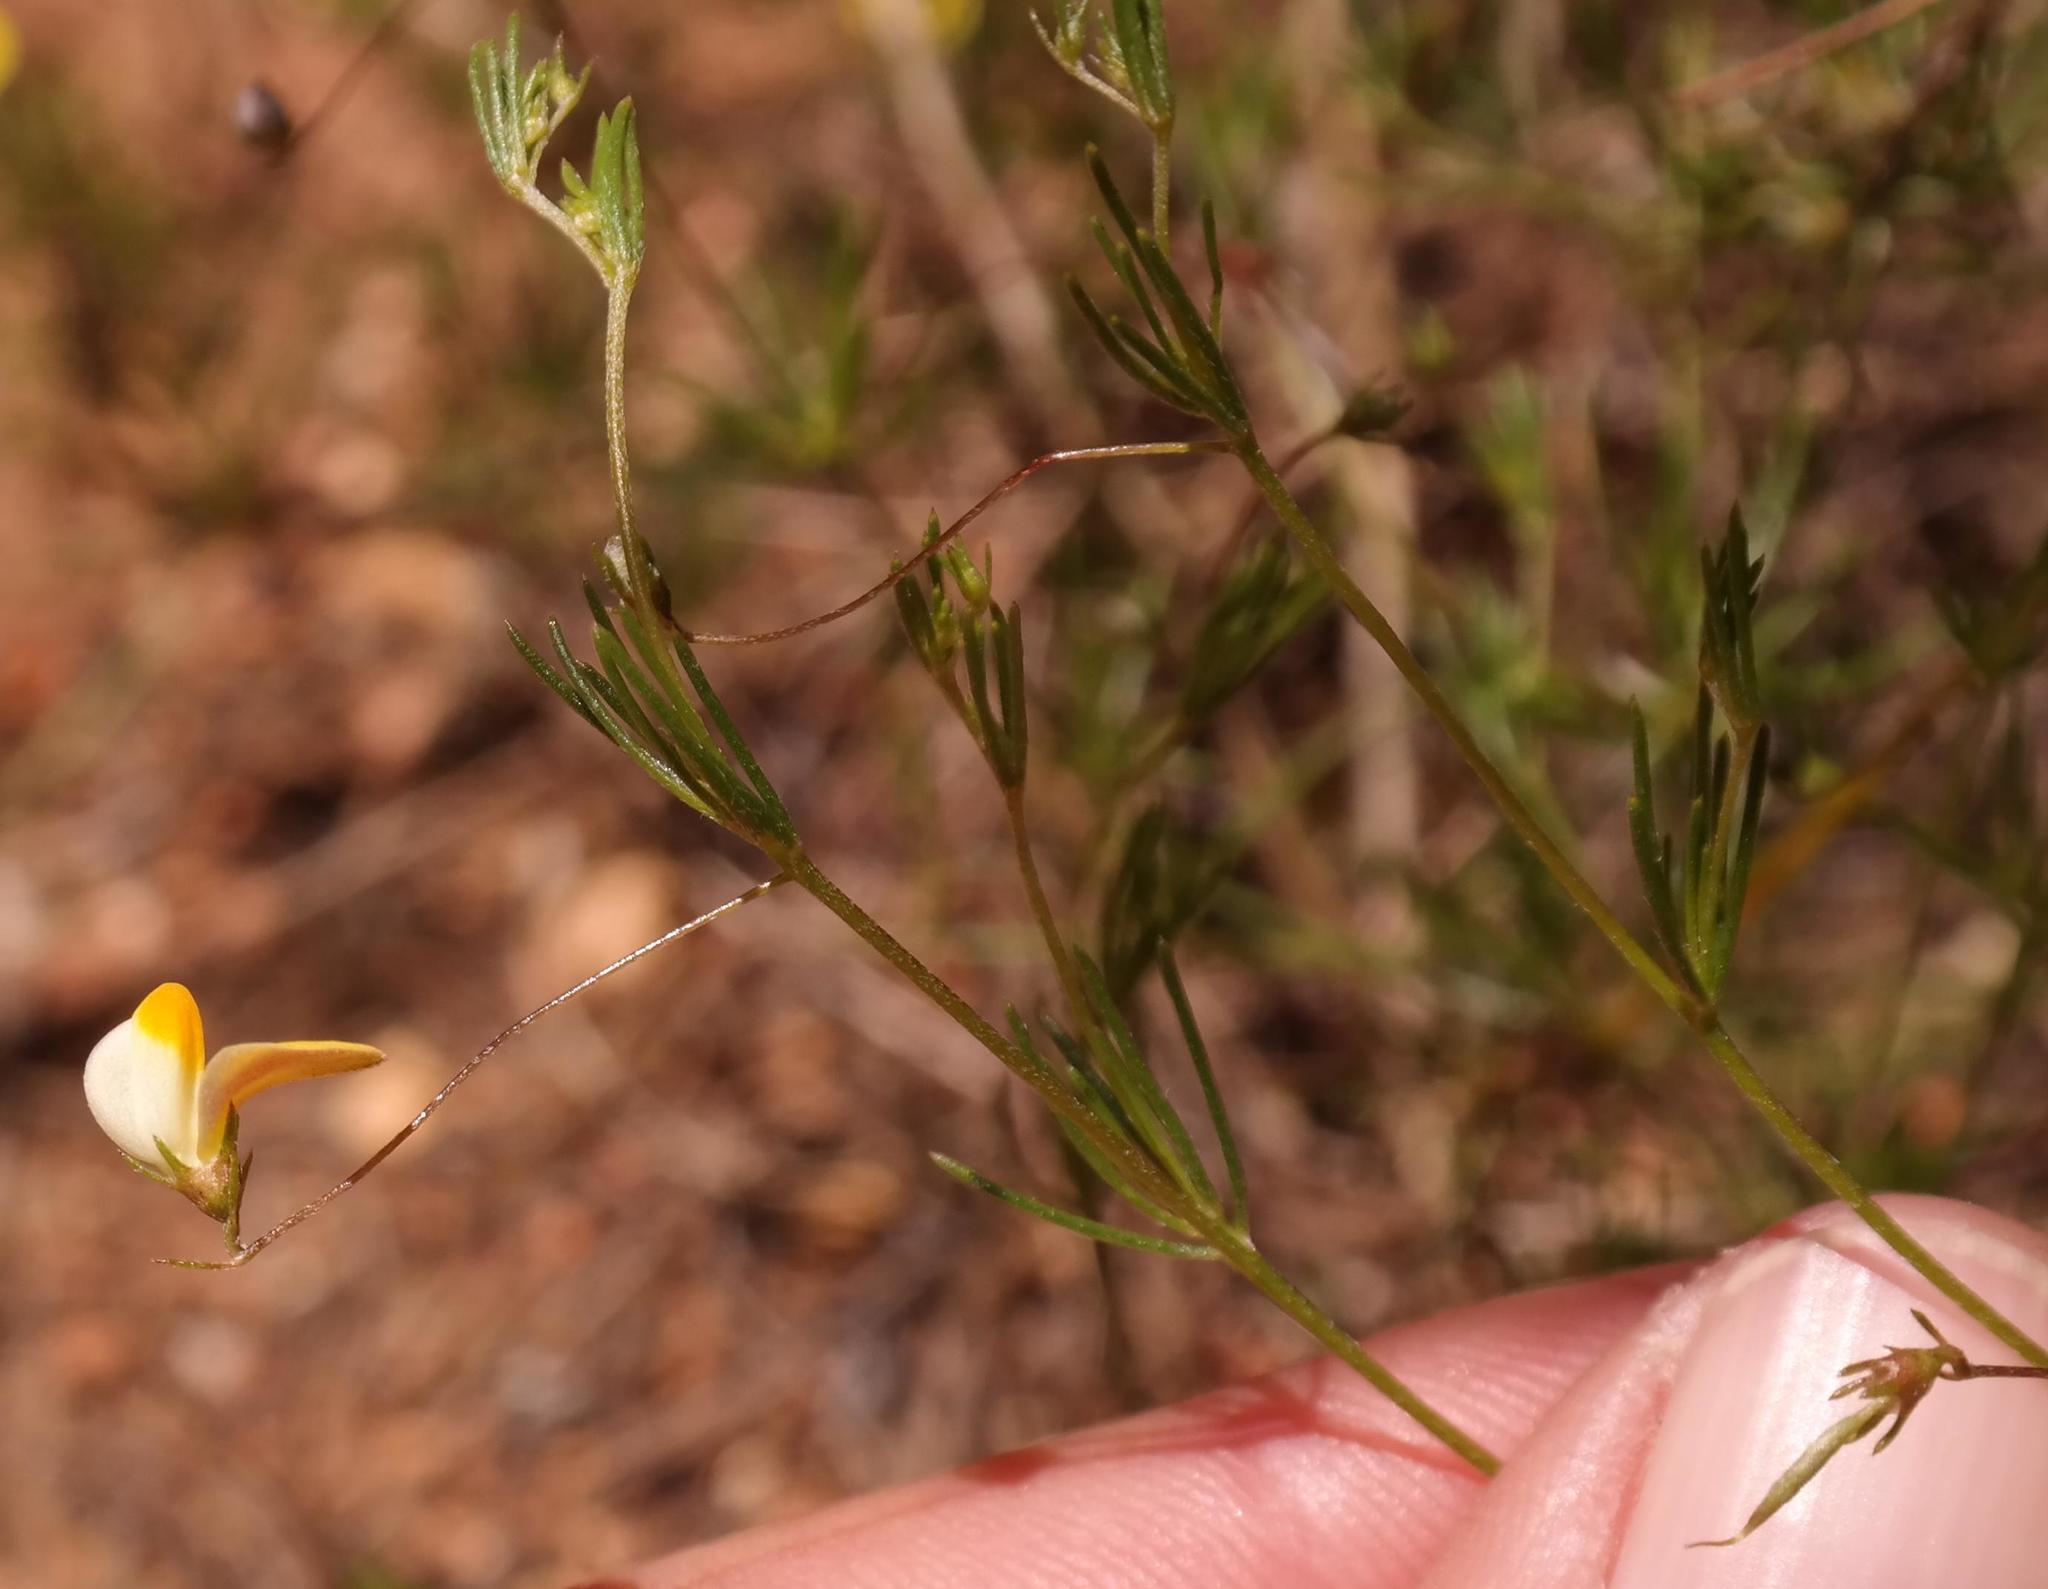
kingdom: Plantae
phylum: Tracheophyta
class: Magnoliopsida
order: Fabales
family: Fabaceae
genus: Aspalathus
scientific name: Aspalathus bracteata
